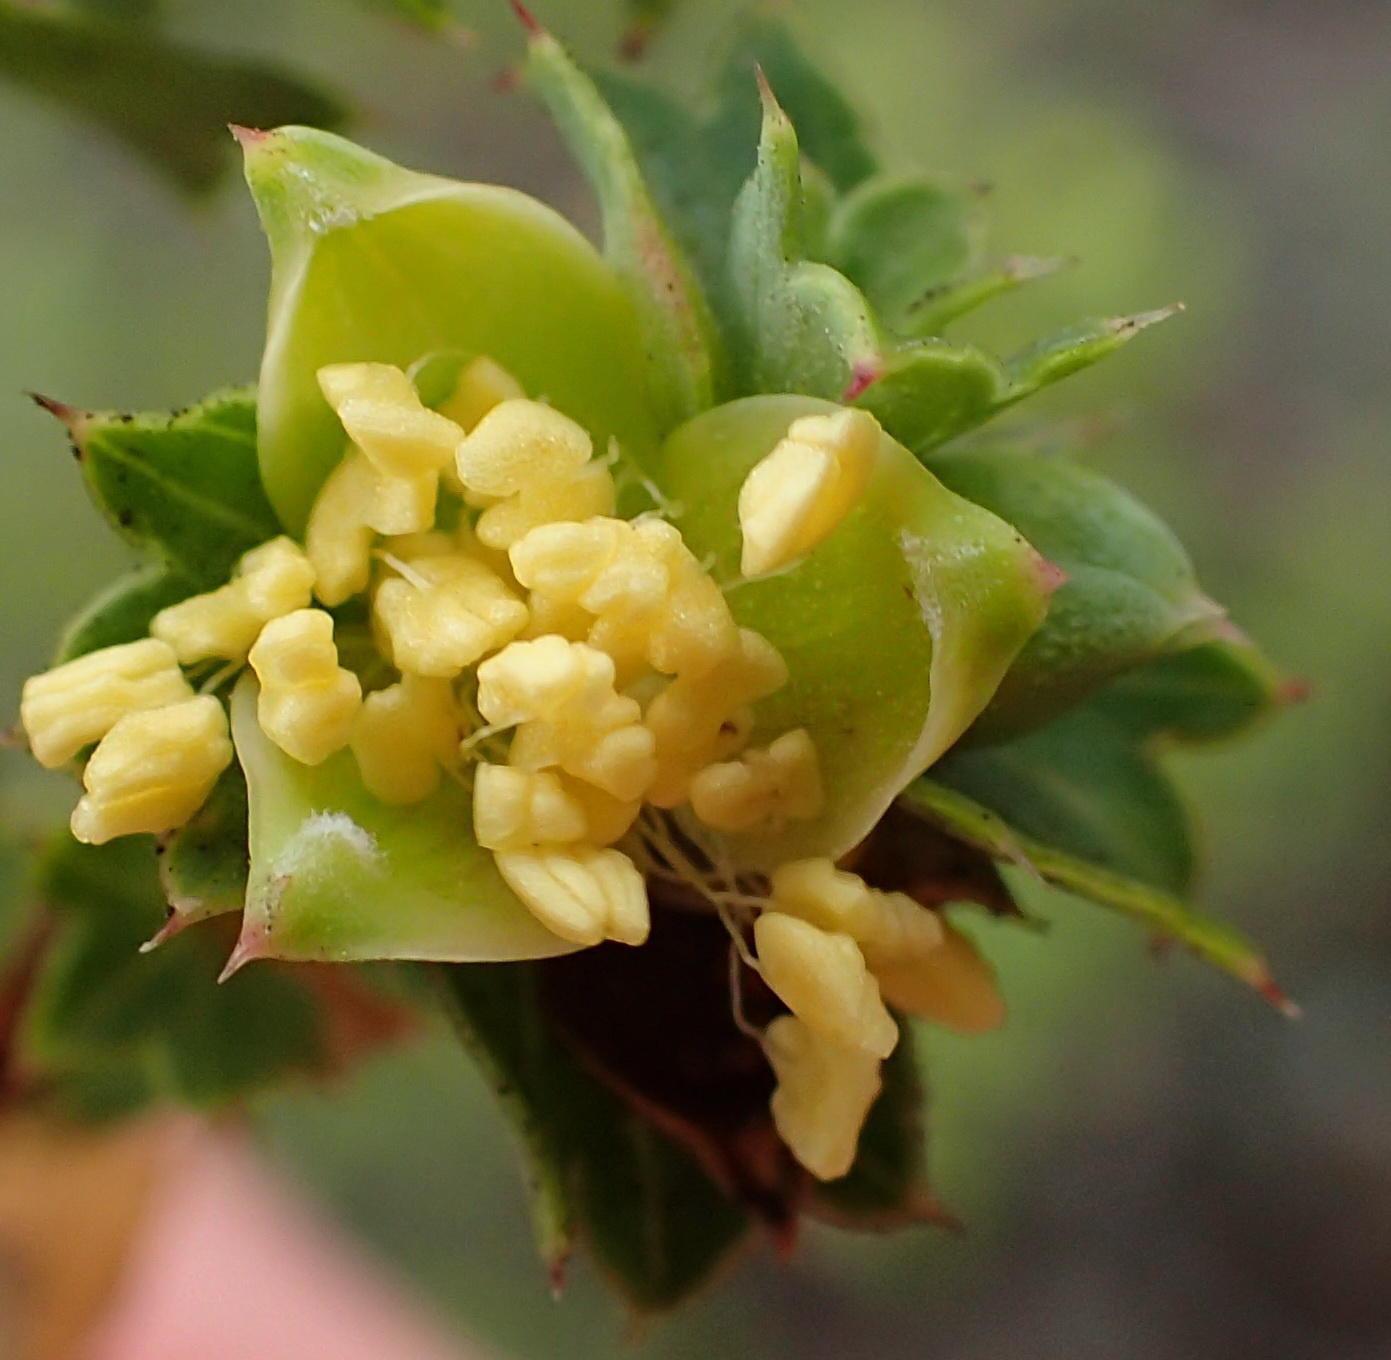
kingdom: Plantae
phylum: Tracheophyta
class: Magnoliopsida
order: Rosales
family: Rosaceae
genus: Cliffortia
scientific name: Cliffortia schlechteri
